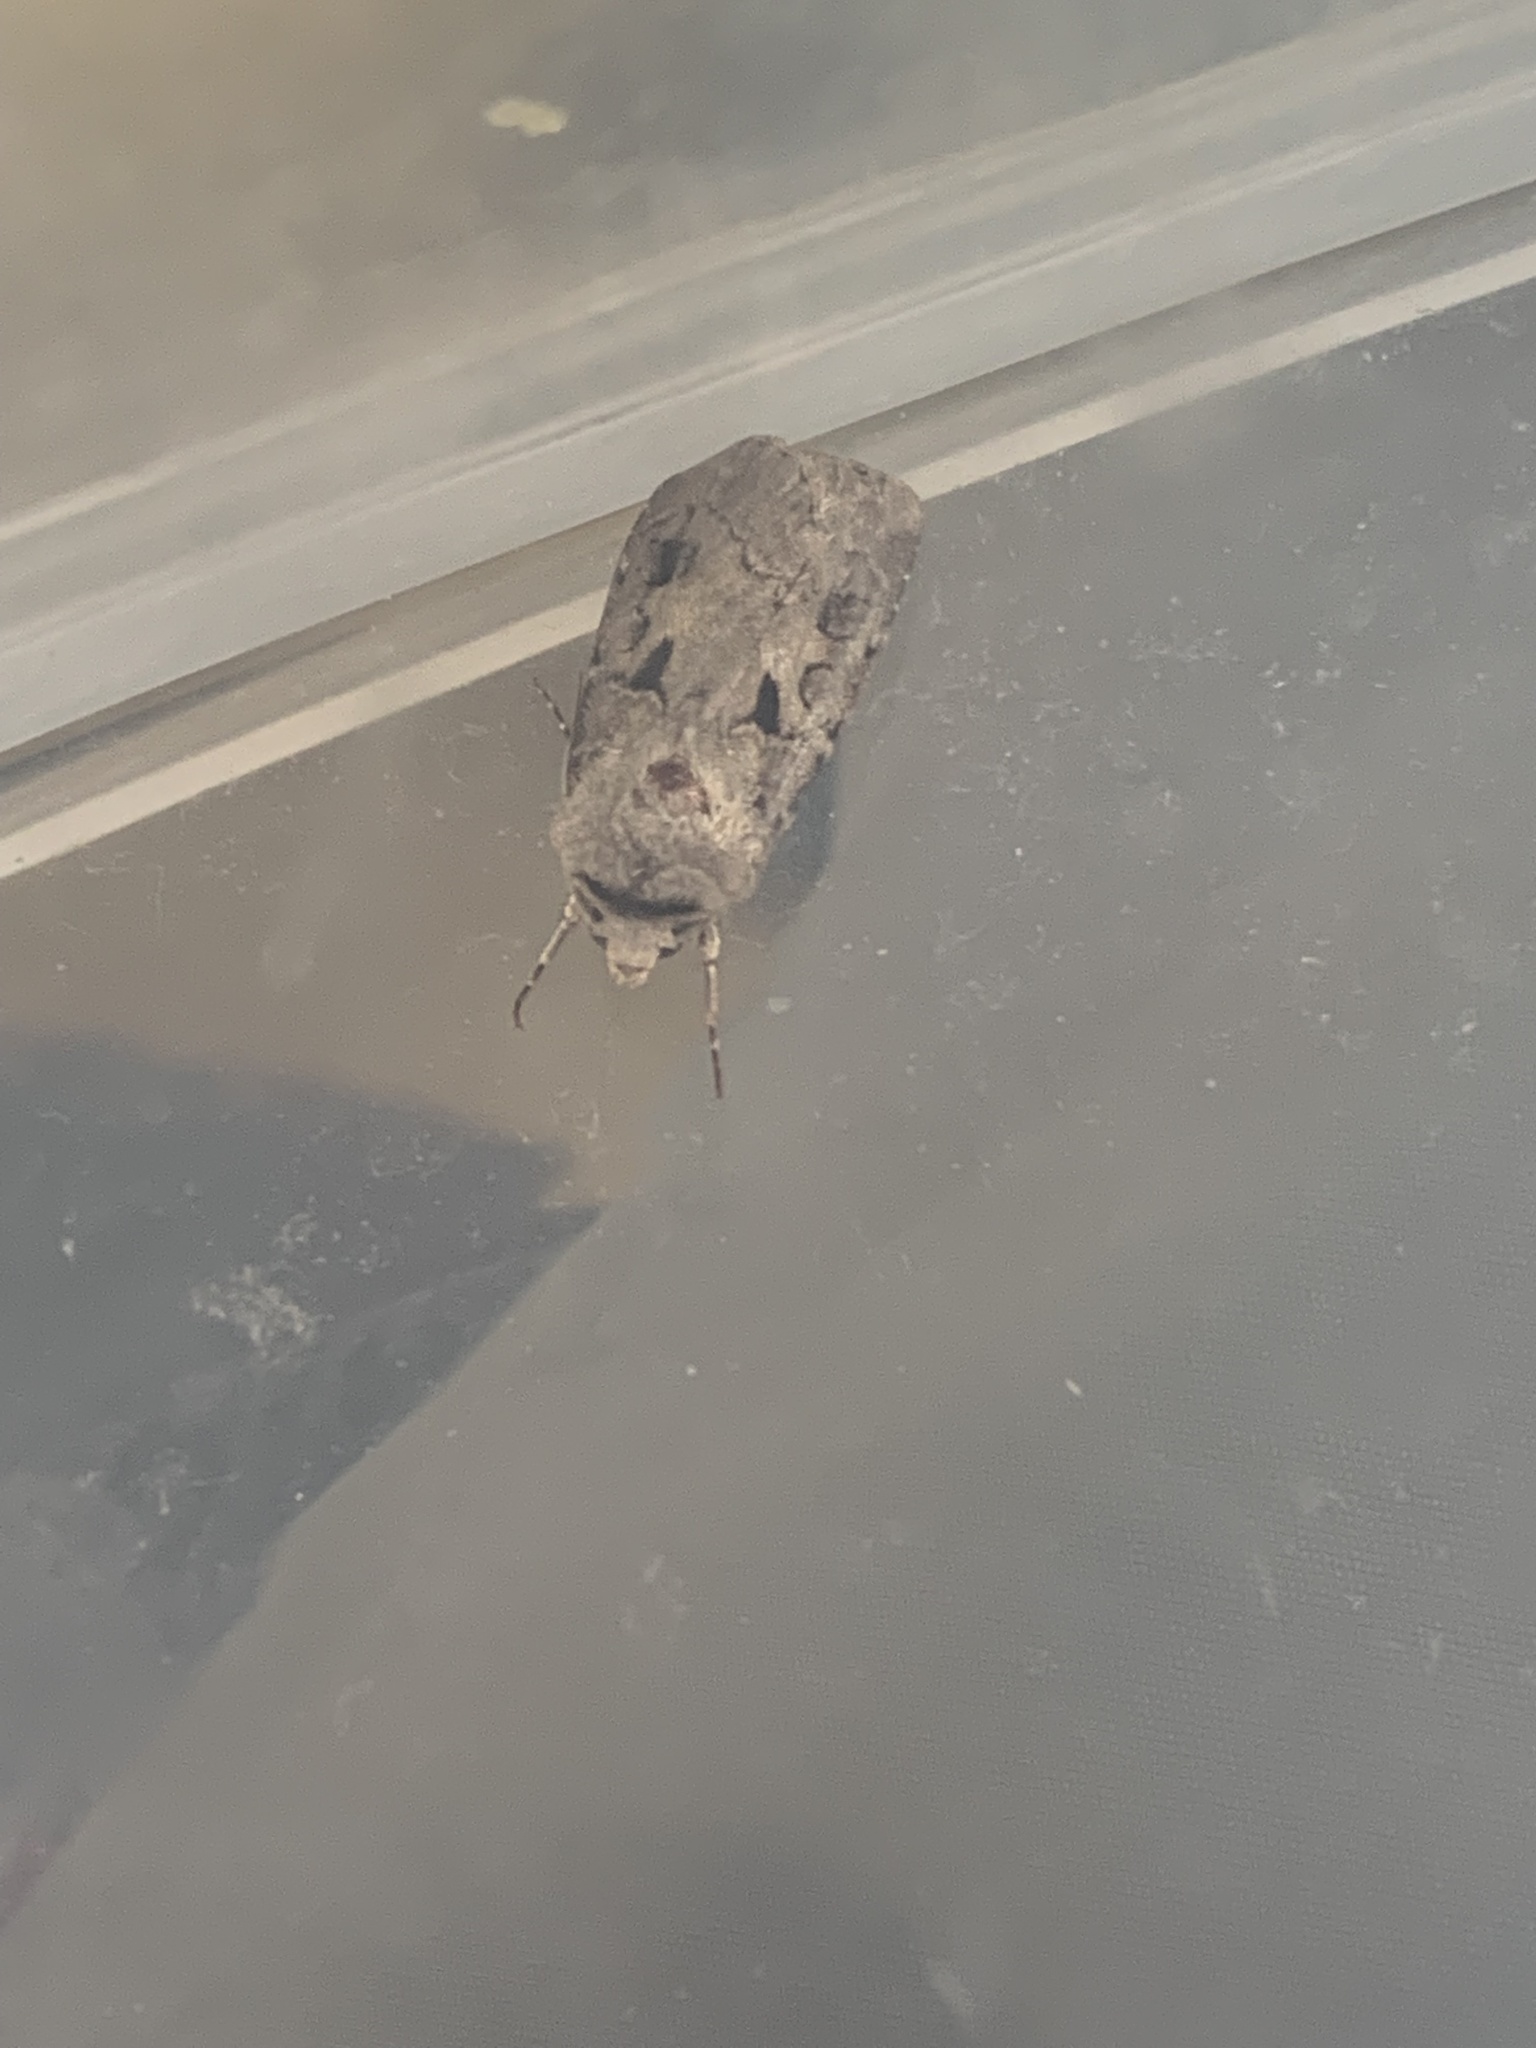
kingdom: Animalia
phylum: Arthropoda
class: Insecta
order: Lepidoptera
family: Noctuidae
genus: Agrotis
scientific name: Agrotis exclamationis
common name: Heart and dart
